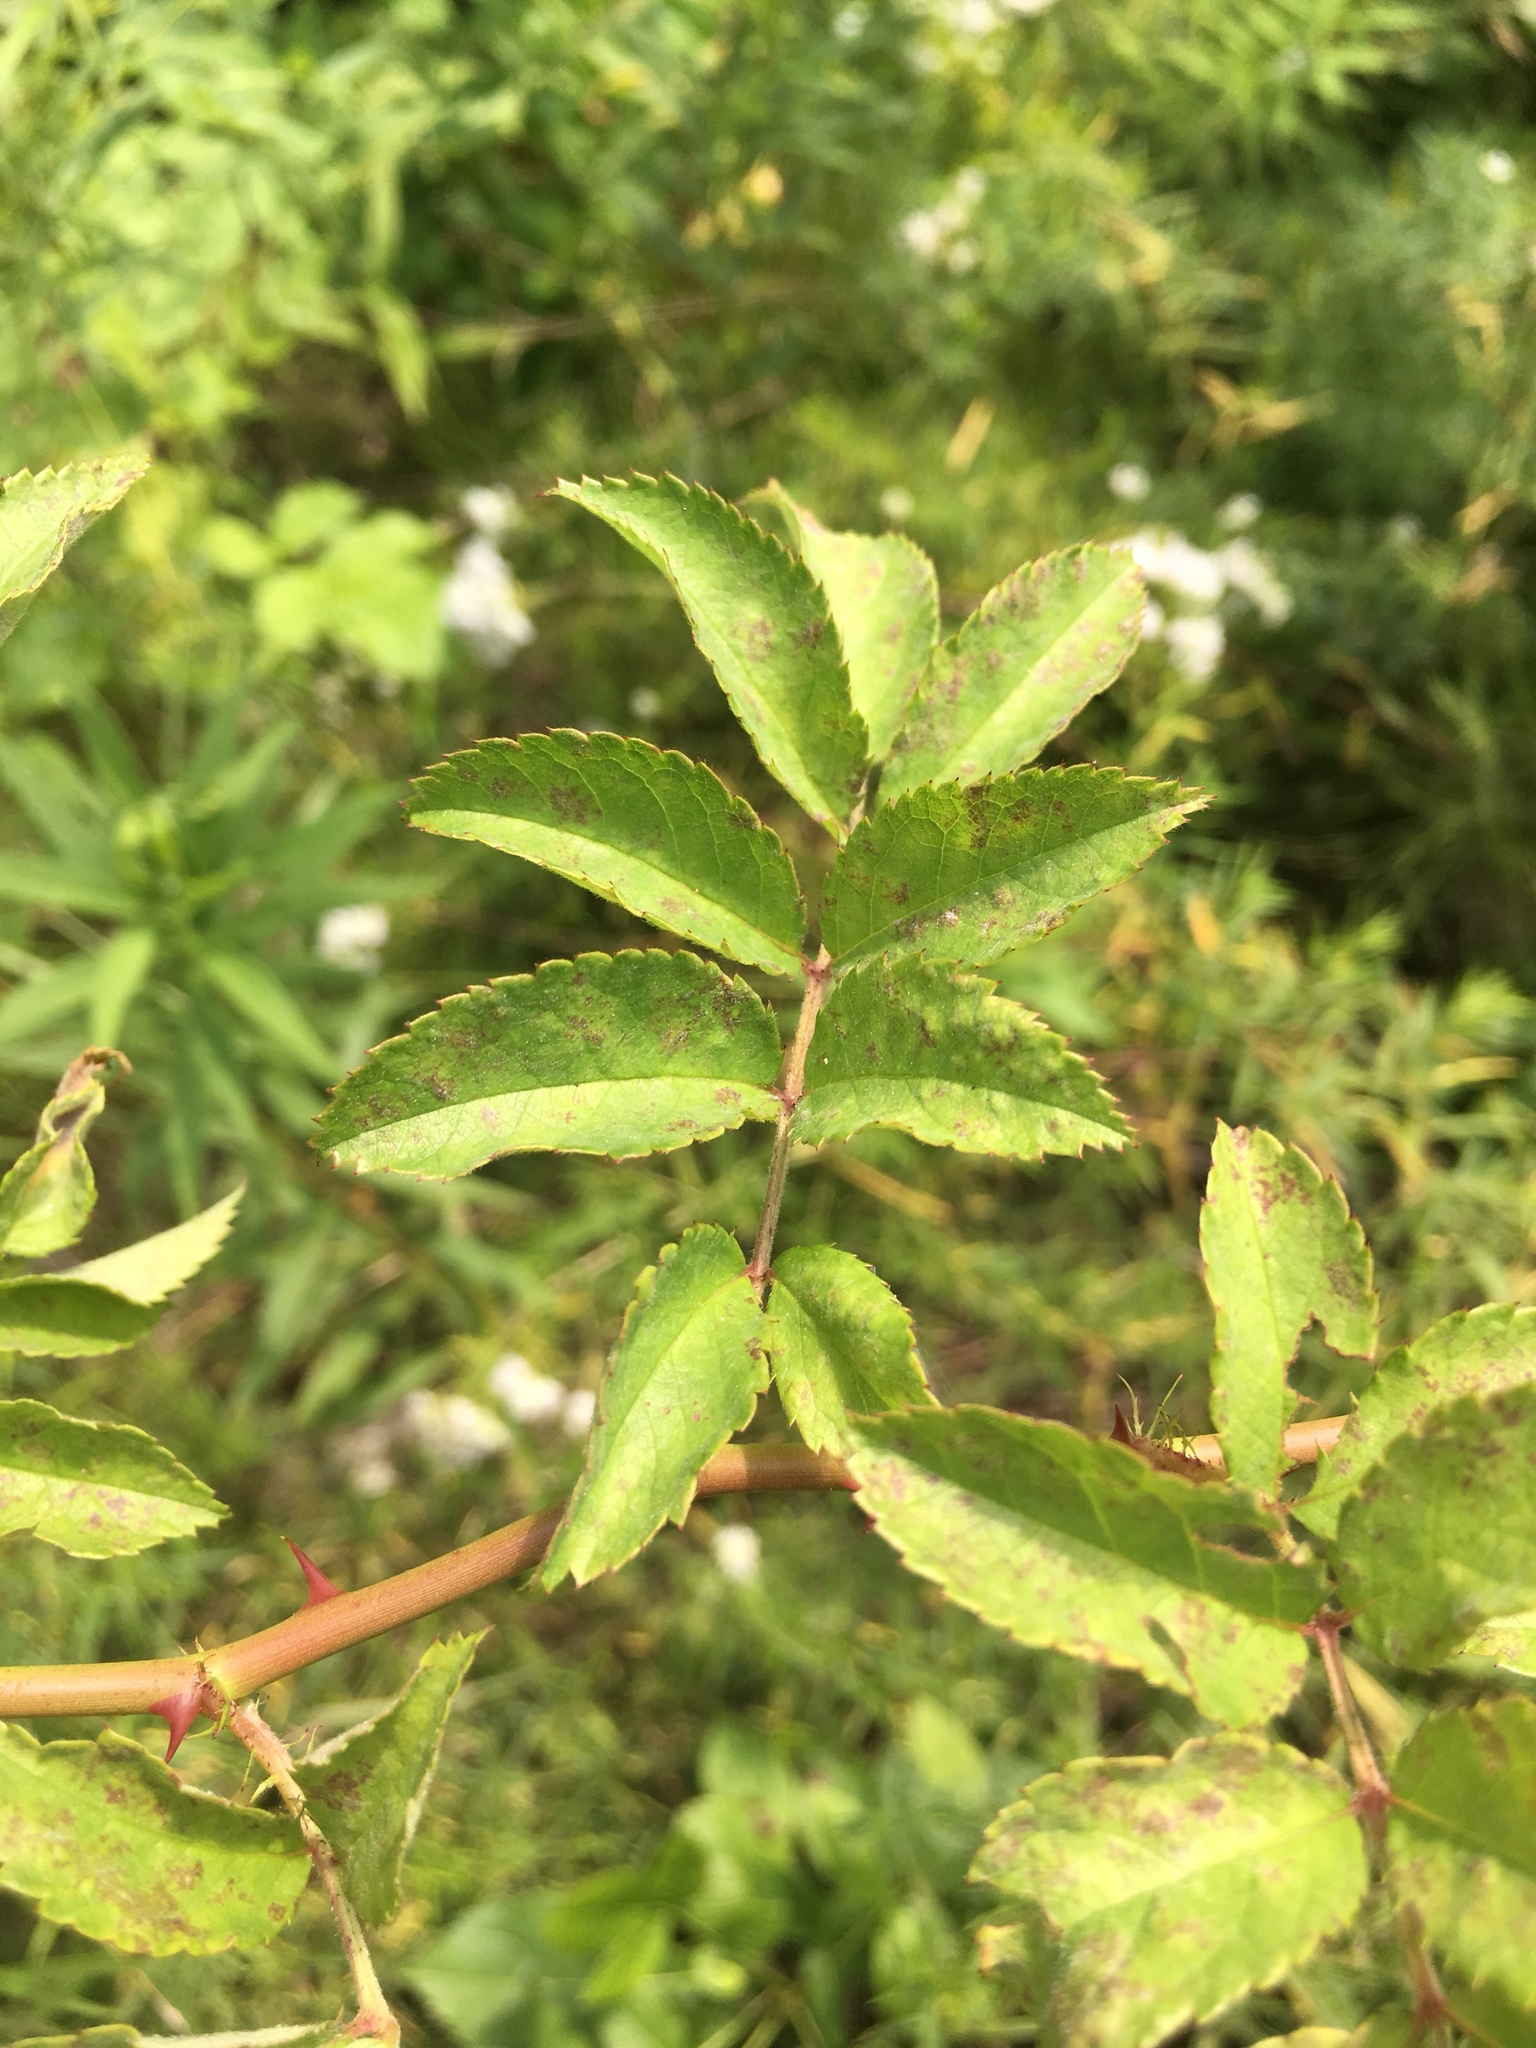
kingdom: Plantae
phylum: Tracheophyta
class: Magnoliopsida
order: Rosales
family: Rosaceae
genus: Rosa
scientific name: Rosa multiflora
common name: Multiflora rose
